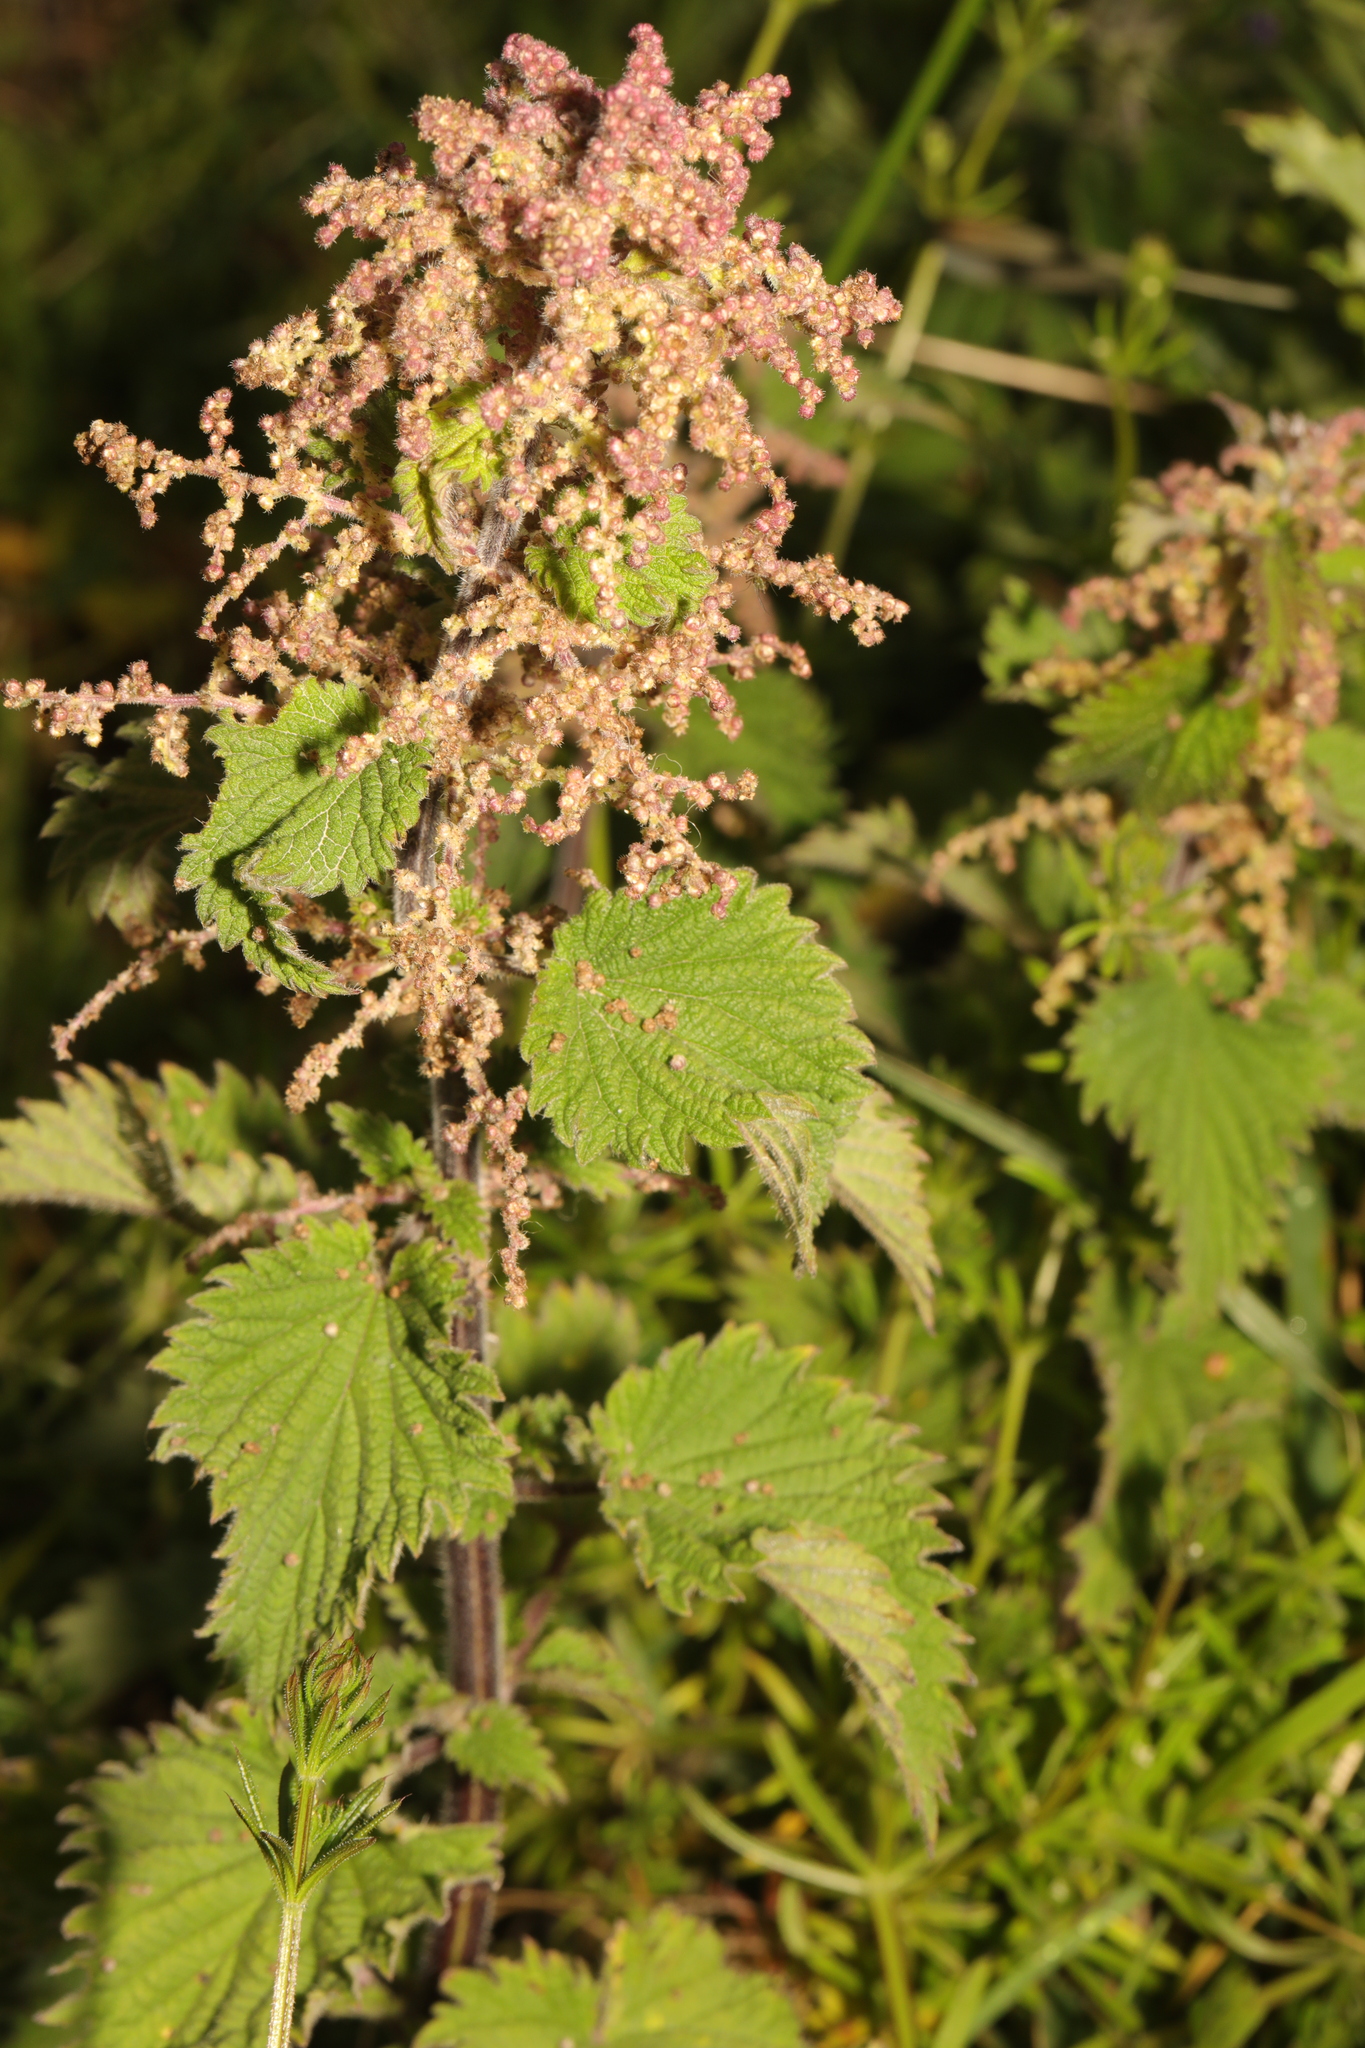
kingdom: Plantae
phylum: Tracheophyta
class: Magnoliopsida
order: Rosales
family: Urticaceae
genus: Urtica
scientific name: Urtica dioica
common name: Common nettle
